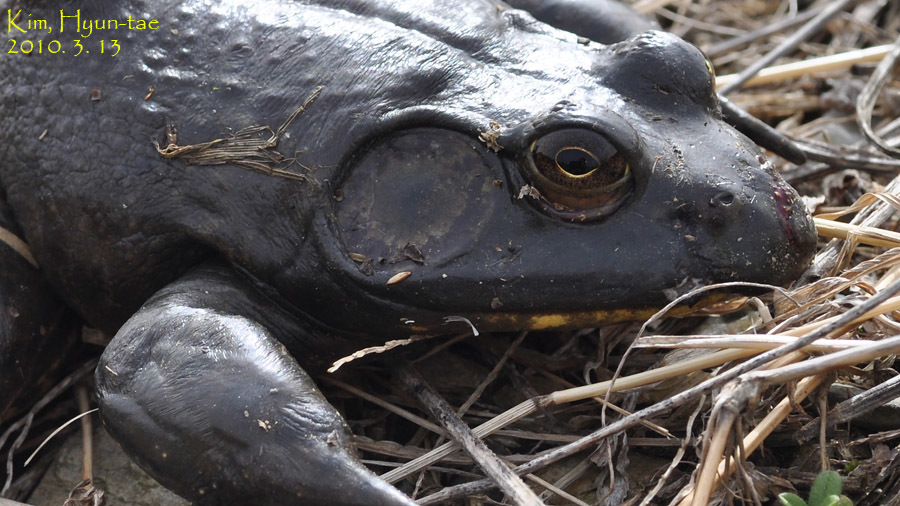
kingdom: Animalia
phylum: Chordata
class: Amphibia
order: Anura
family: Ranidae
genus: Lithobates
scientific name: Lithobates catesbeianus
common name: American bullfrog
